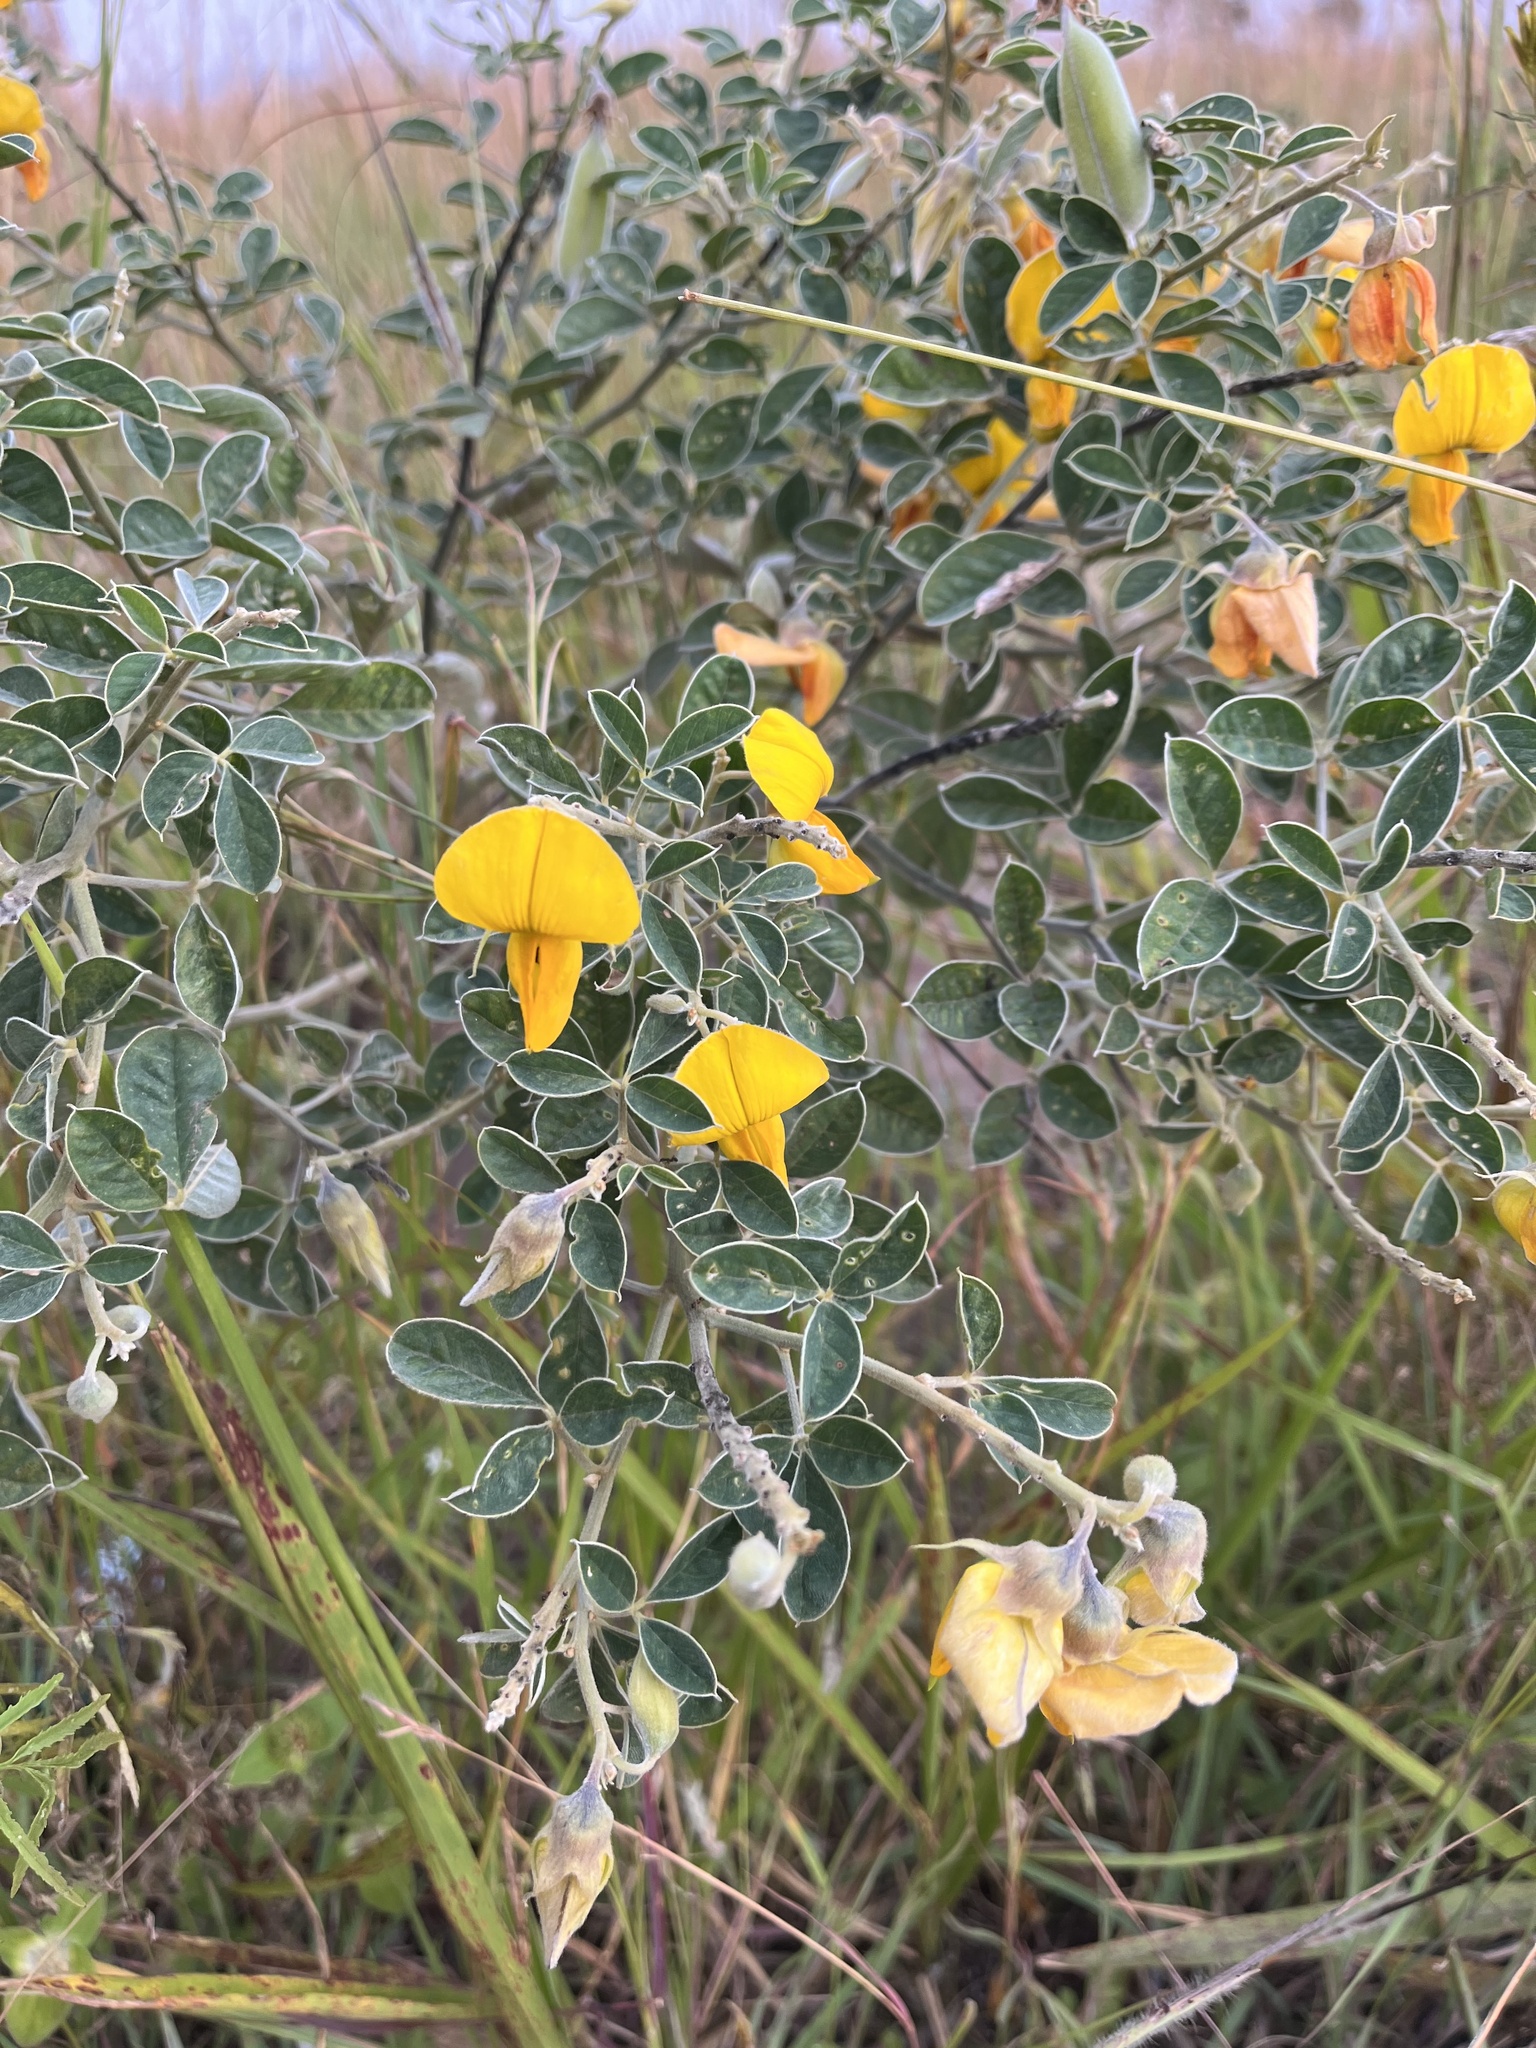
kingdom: Plantae
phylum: Tracheophyta
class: Magnoliopsida
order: Fabales
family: Fabaceae
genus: Crotalaria
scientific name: Crotalaria doidgeae
